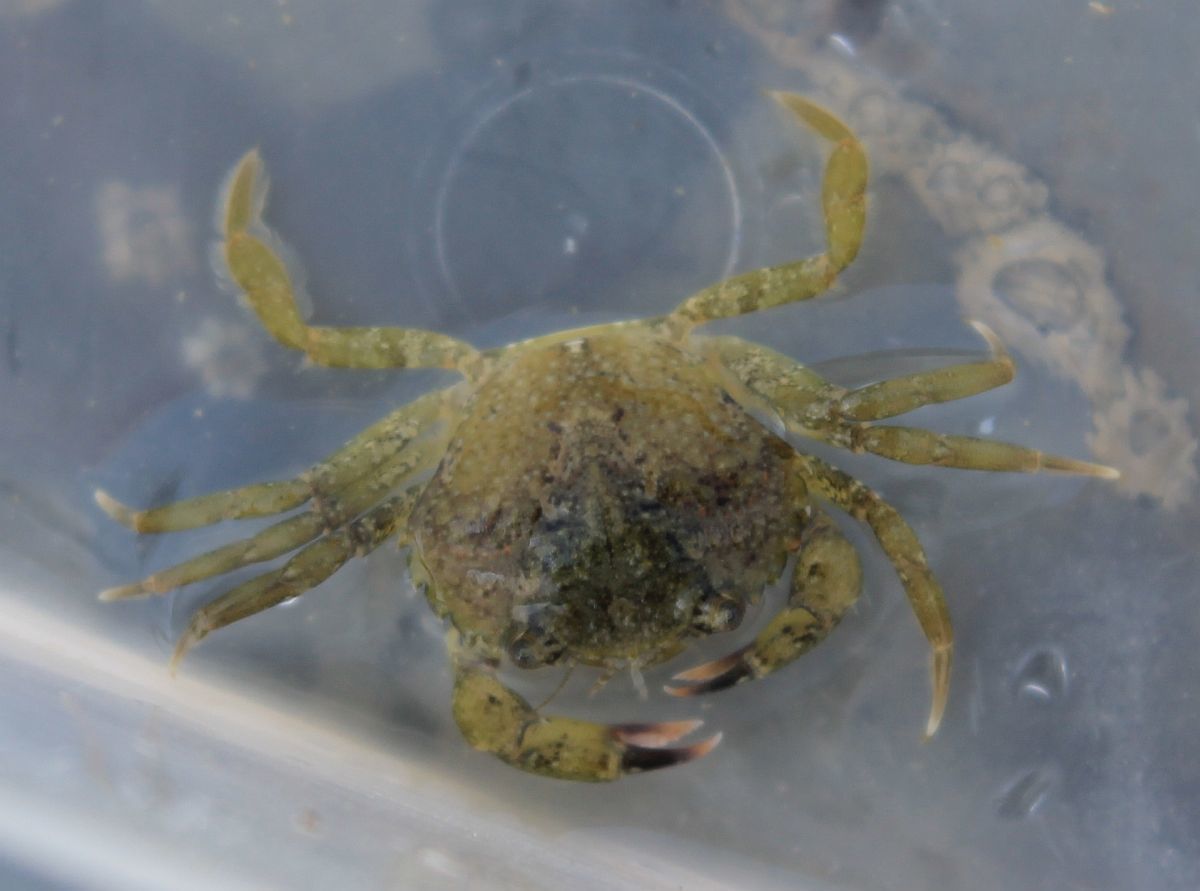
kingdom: Animalia
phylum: Arthropoda
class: Malacostraca
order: Decapoda
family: Carcinidae
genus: Carcinus
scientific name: Carcinus maenas
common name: European green crab
